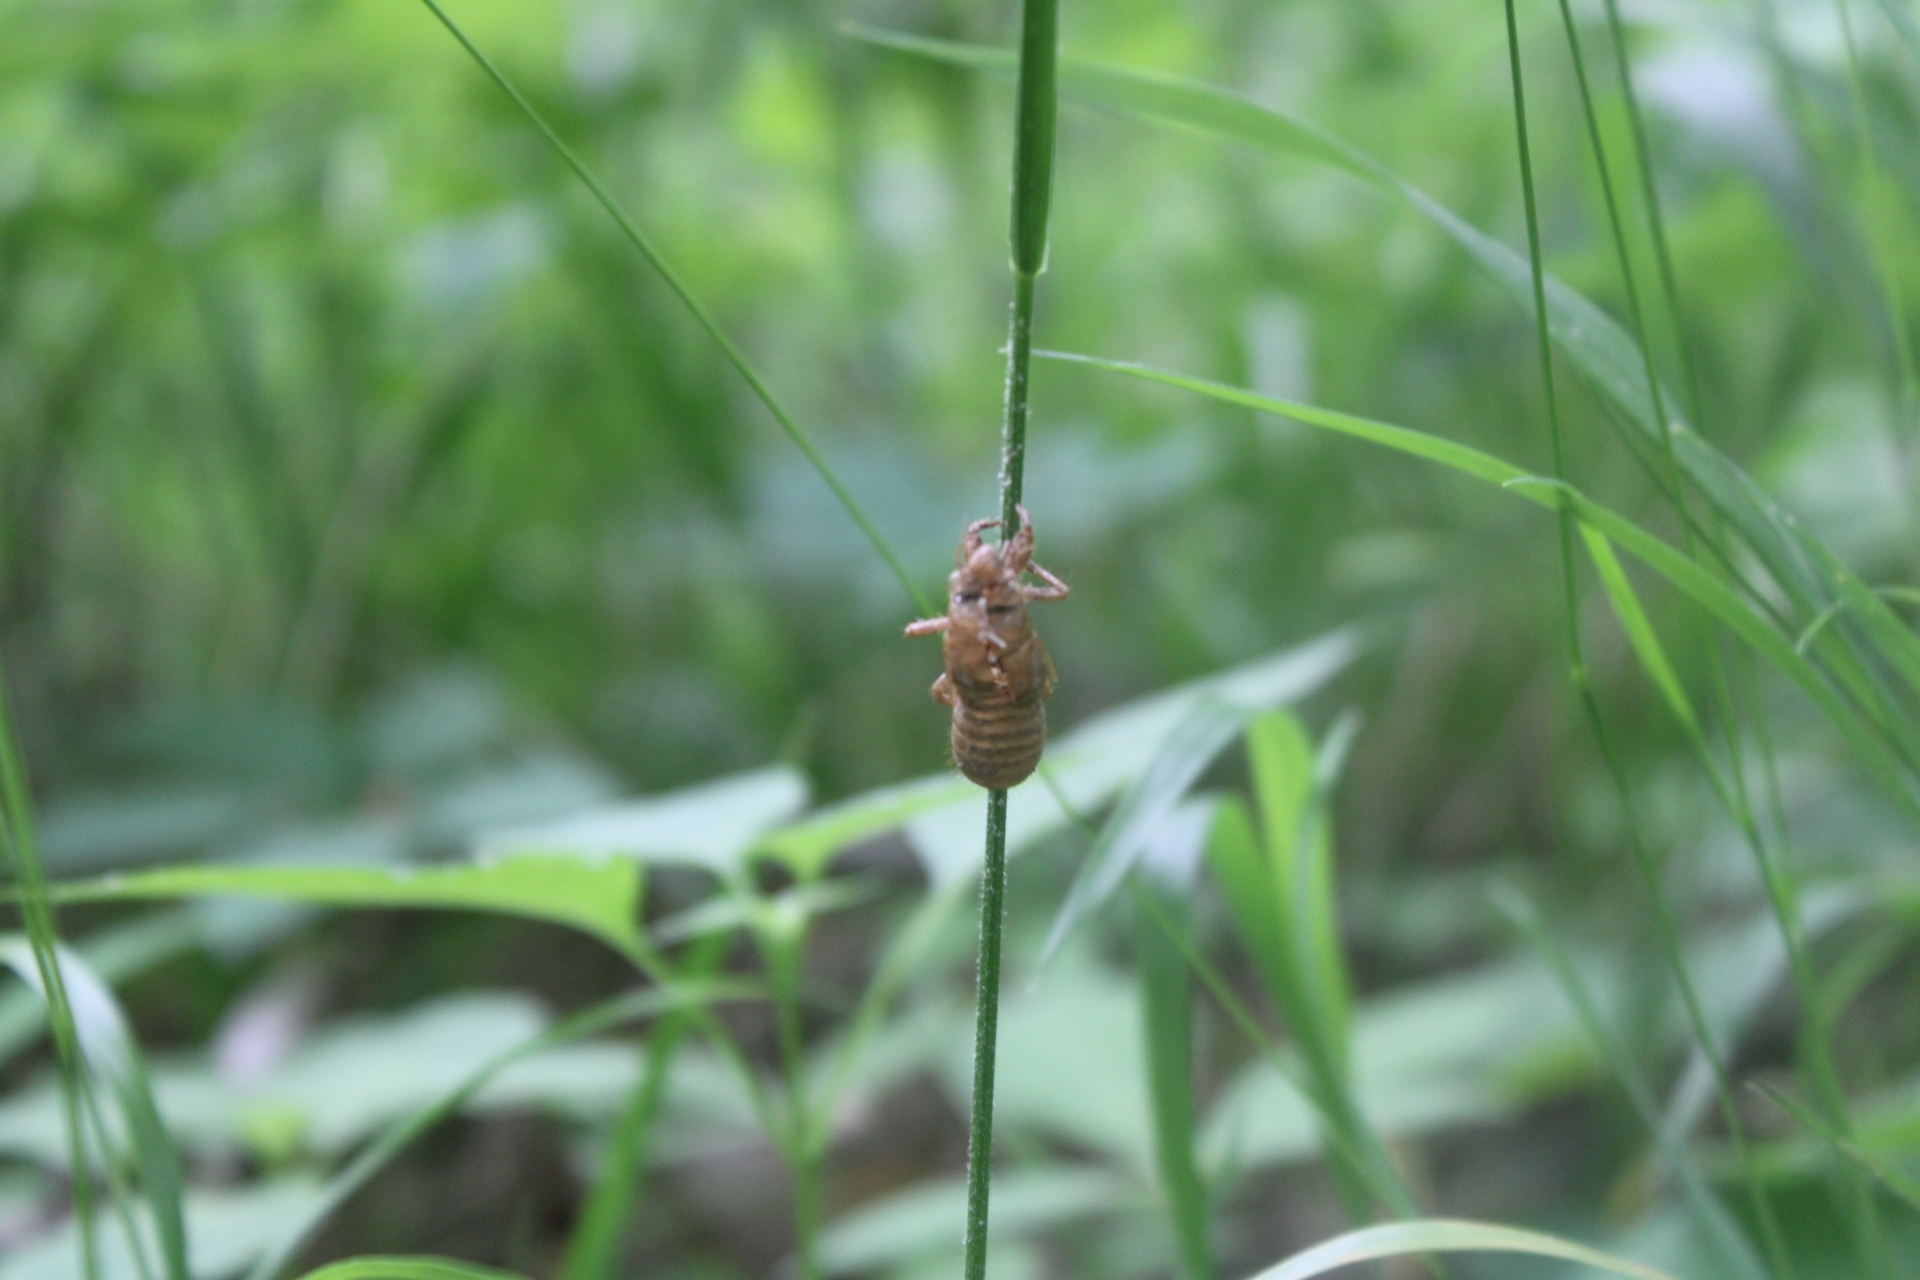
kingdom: Animalia
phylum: Arthropoda
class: Insecta
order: Hemiptera
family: Cicadidae
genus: Magicicada
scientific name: Magicicada
